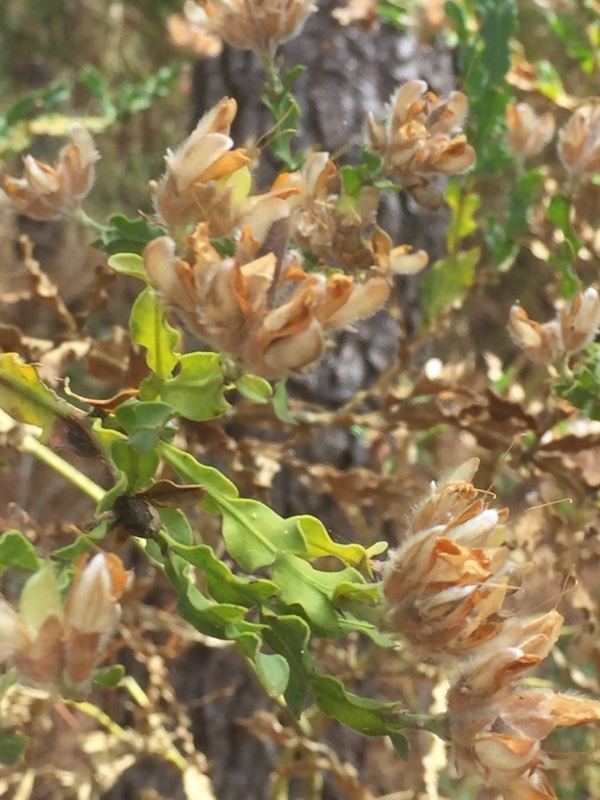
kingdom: Plantae
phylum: Tracheophyta
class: Magnoliopsida
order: Fabales
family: Fabaceae
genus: Genista
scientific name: Genista tridentata
